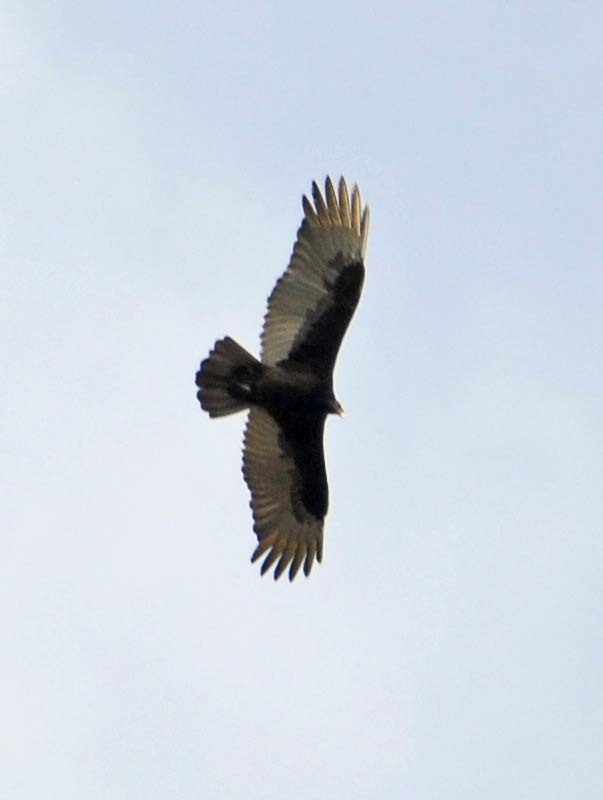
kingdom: Animalia
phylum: Chordata
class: Aves
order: Accipitriformes
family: Cathartidae
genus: Cathartes
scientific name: Cathartes aura
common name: Turkey vulture
